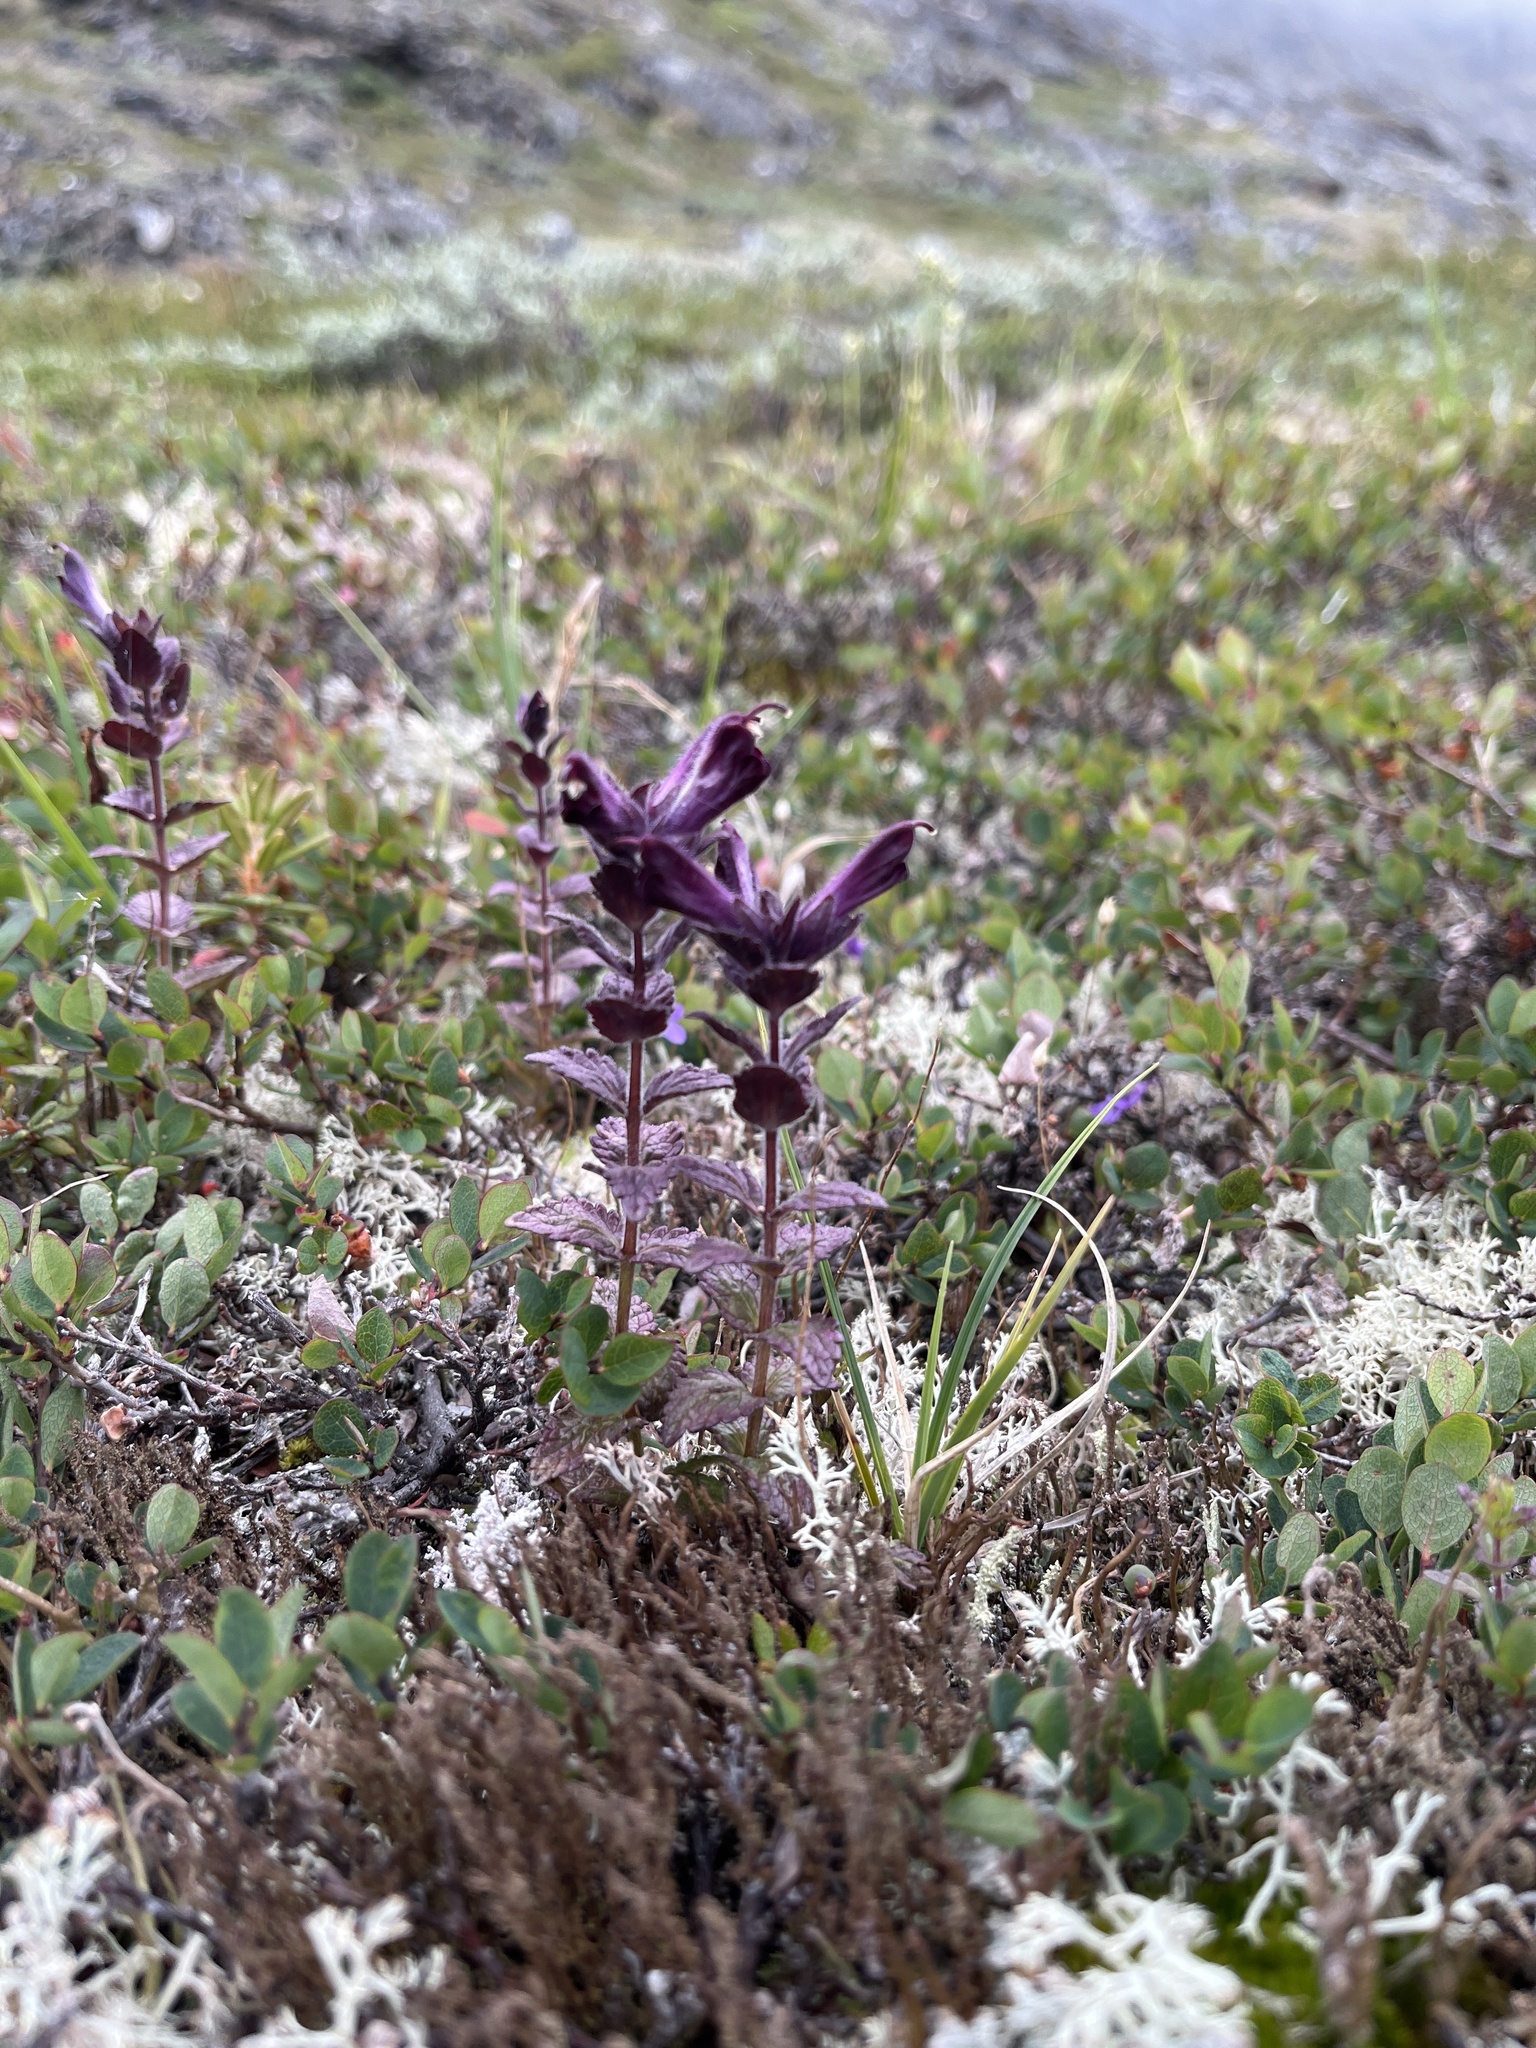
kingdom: Plantae
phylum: Tracheophyta
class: Magnoliopsida
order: Lamiales
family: Orobanchaceae
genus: Bartsia
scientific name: Bartsia alpina
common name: Alpine bartsia
